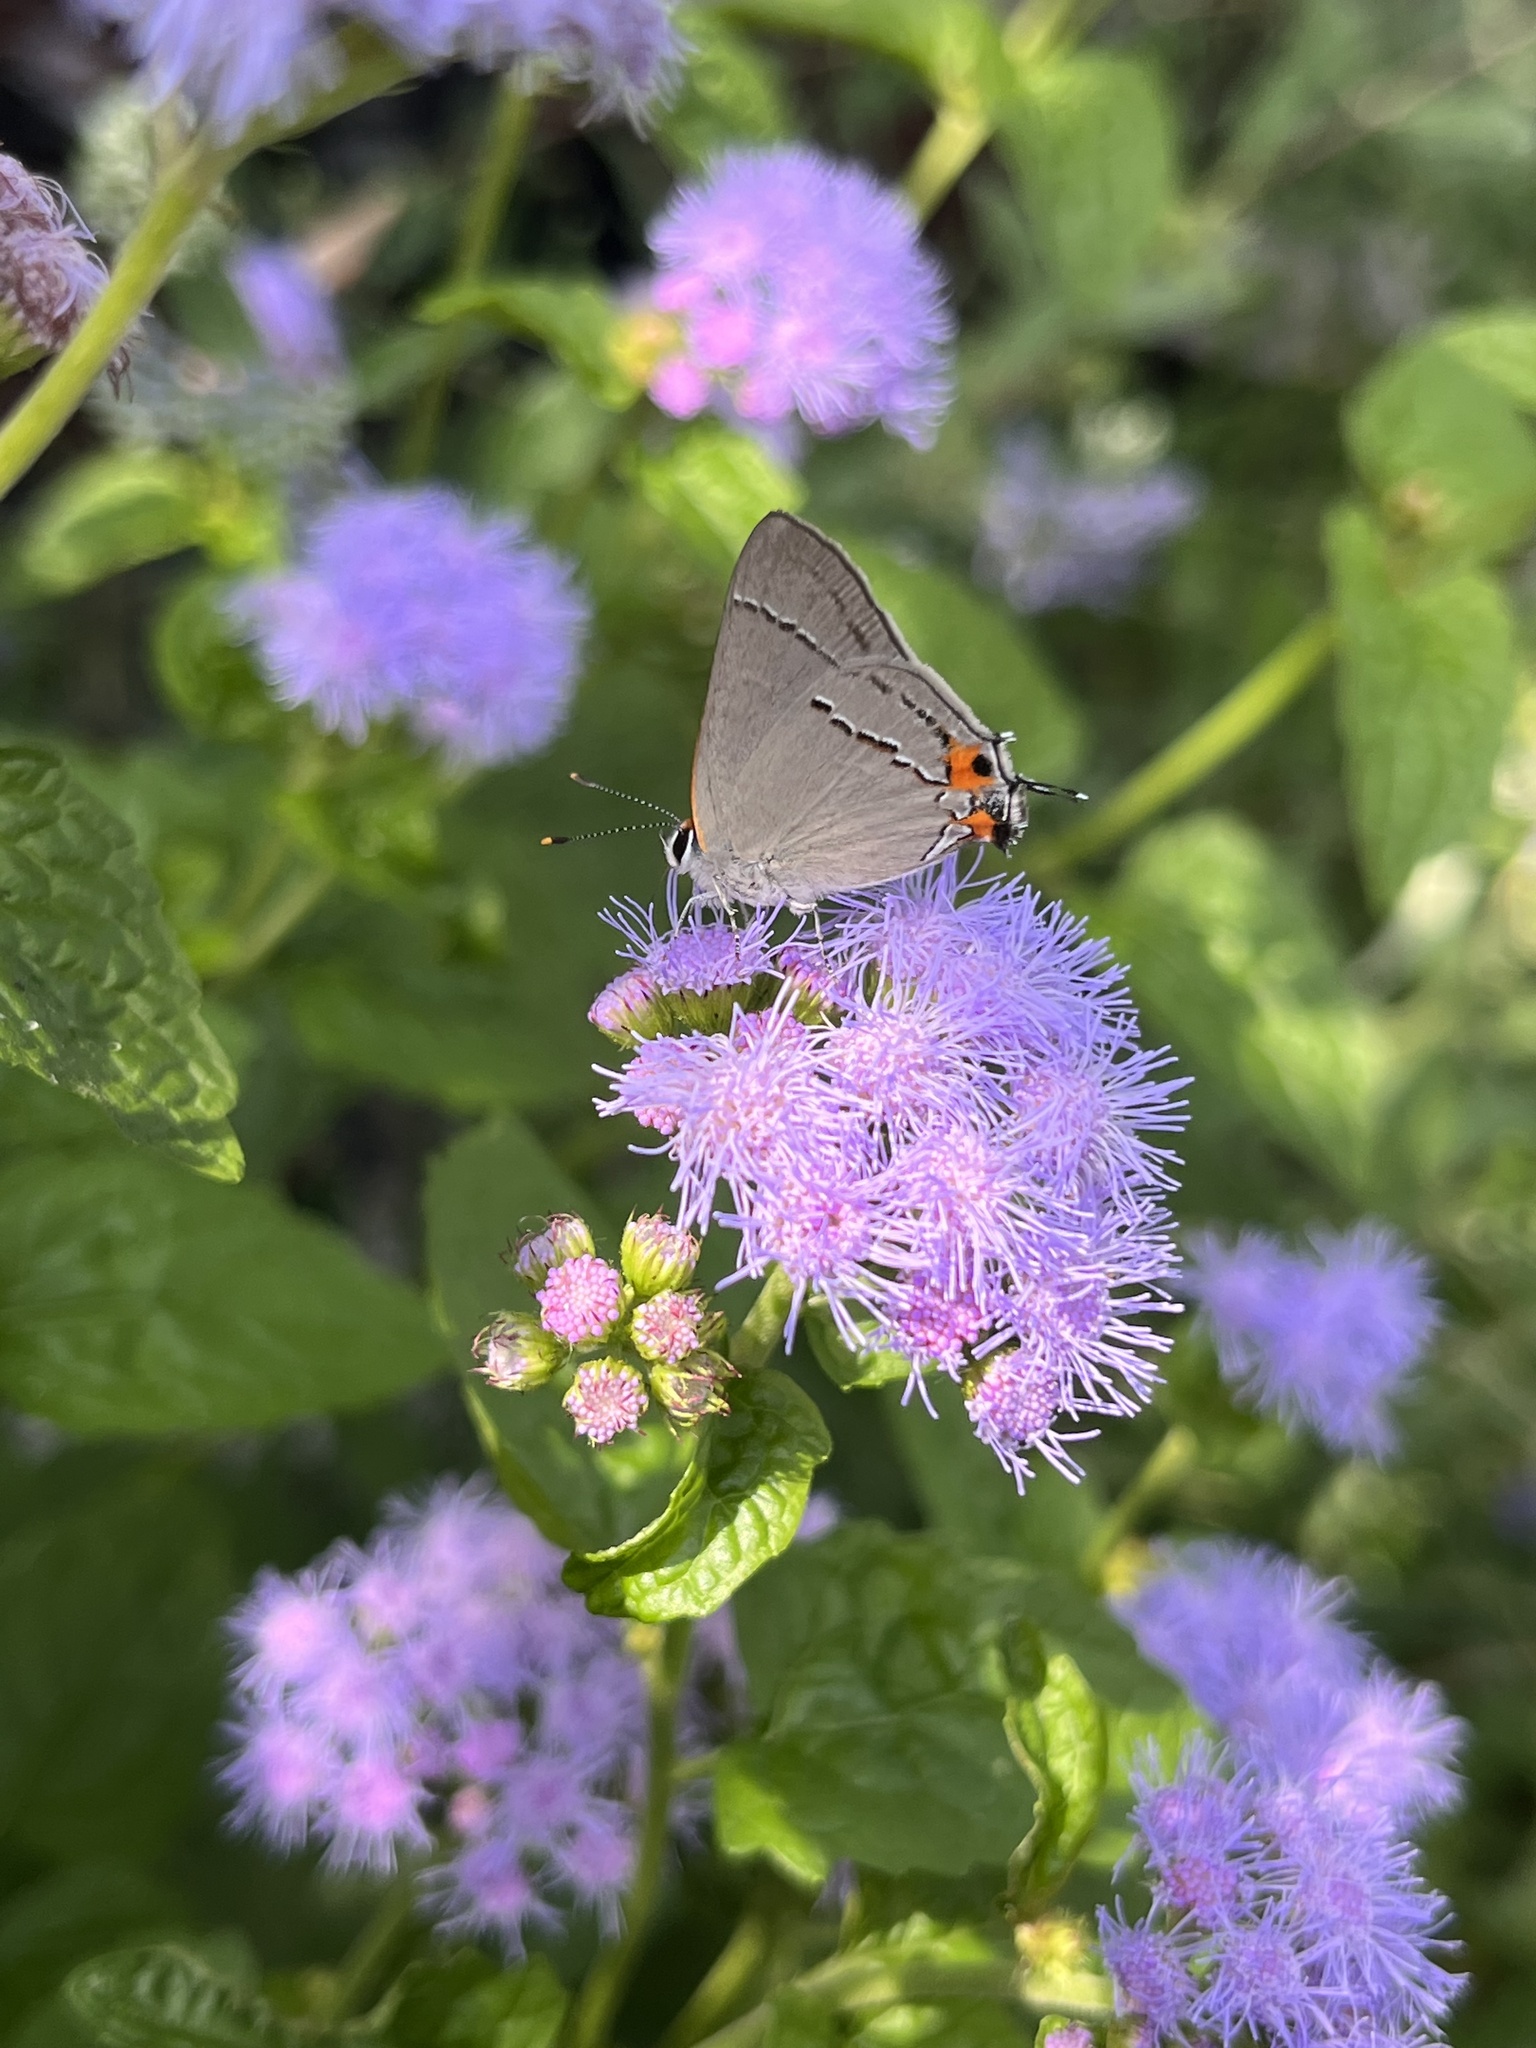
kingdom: Animalia
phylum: Arthropoda
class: Insecta
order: Lepidoptera
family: Lycaenidae
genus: Strymon
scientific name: Strymon melinus
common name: Gray hairstreak
